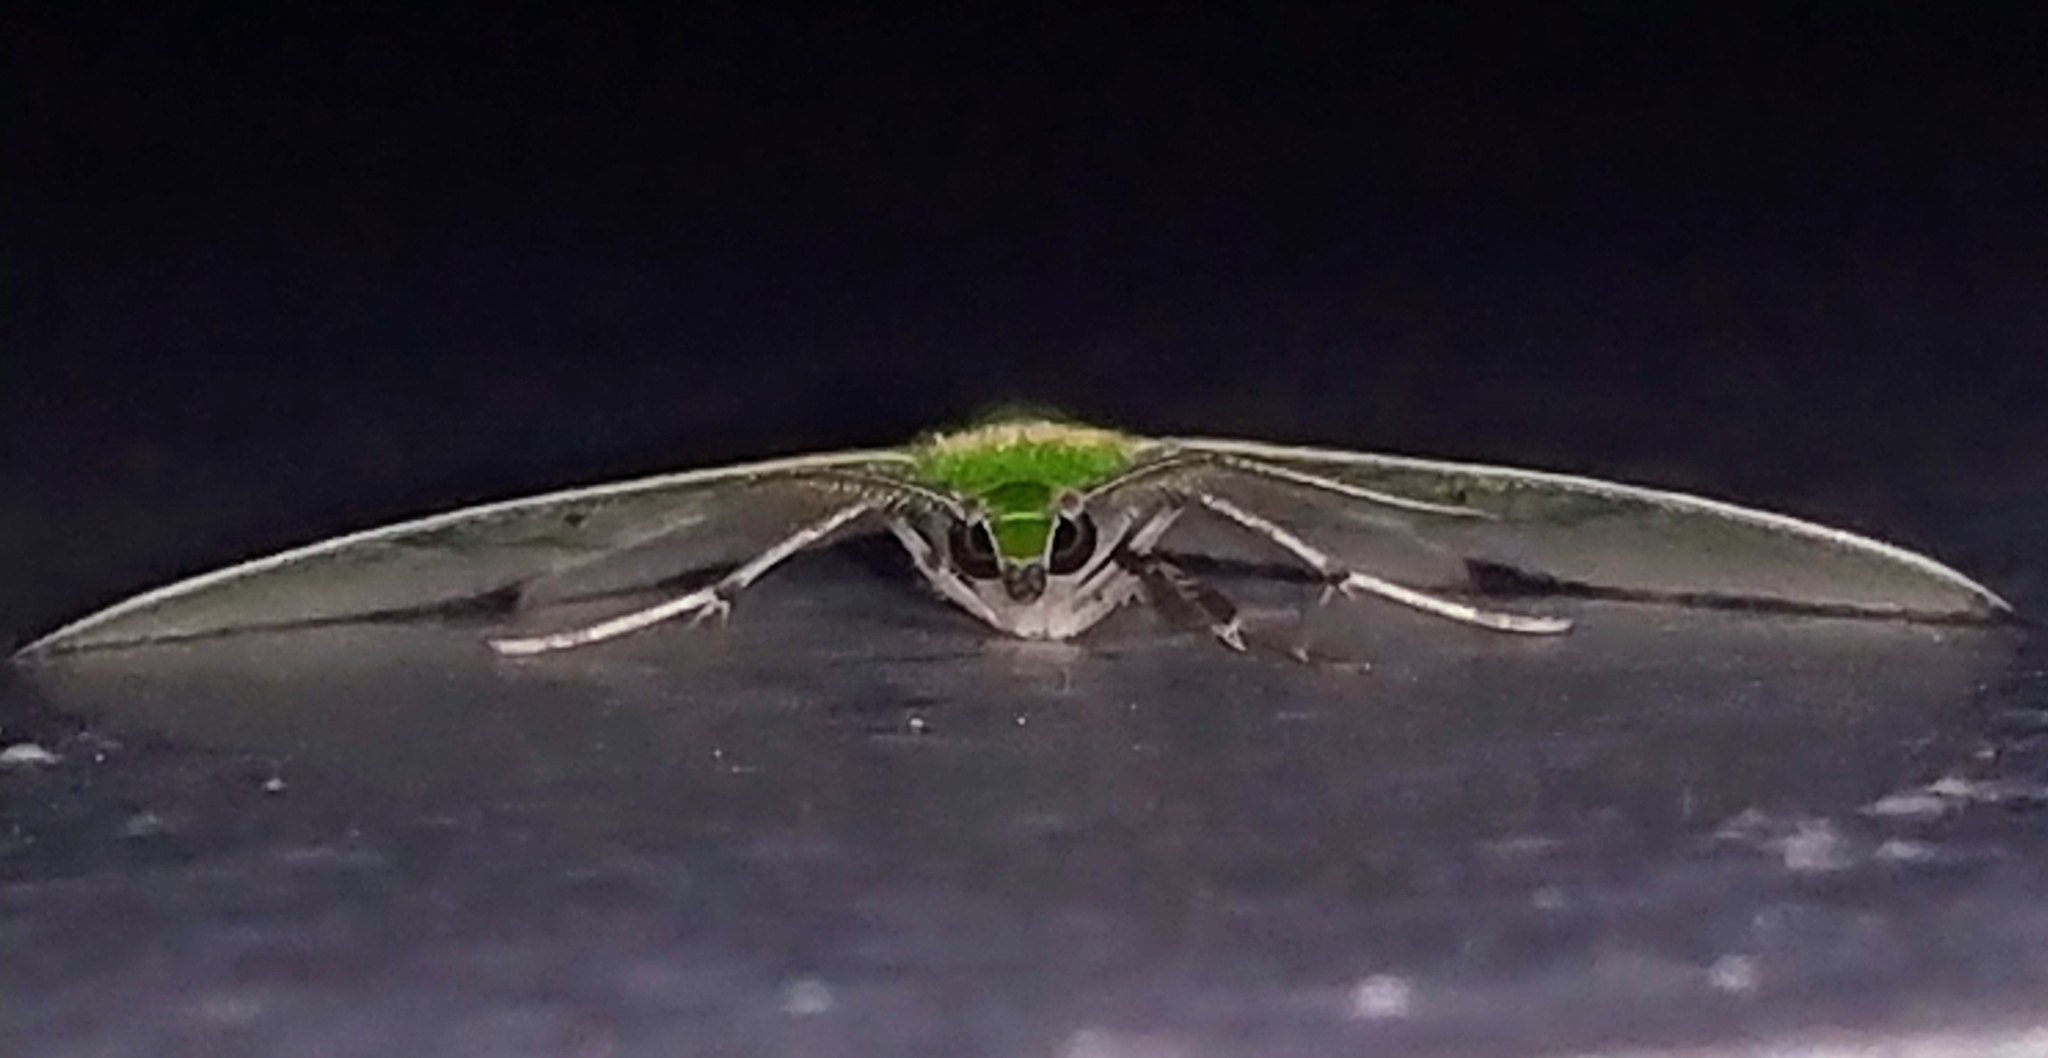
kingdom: Animalia
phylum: Arthropoda
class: Insecta
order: Lepidoptera
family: Geometridae
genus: Comibaena
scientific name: Comibaena cassidara
